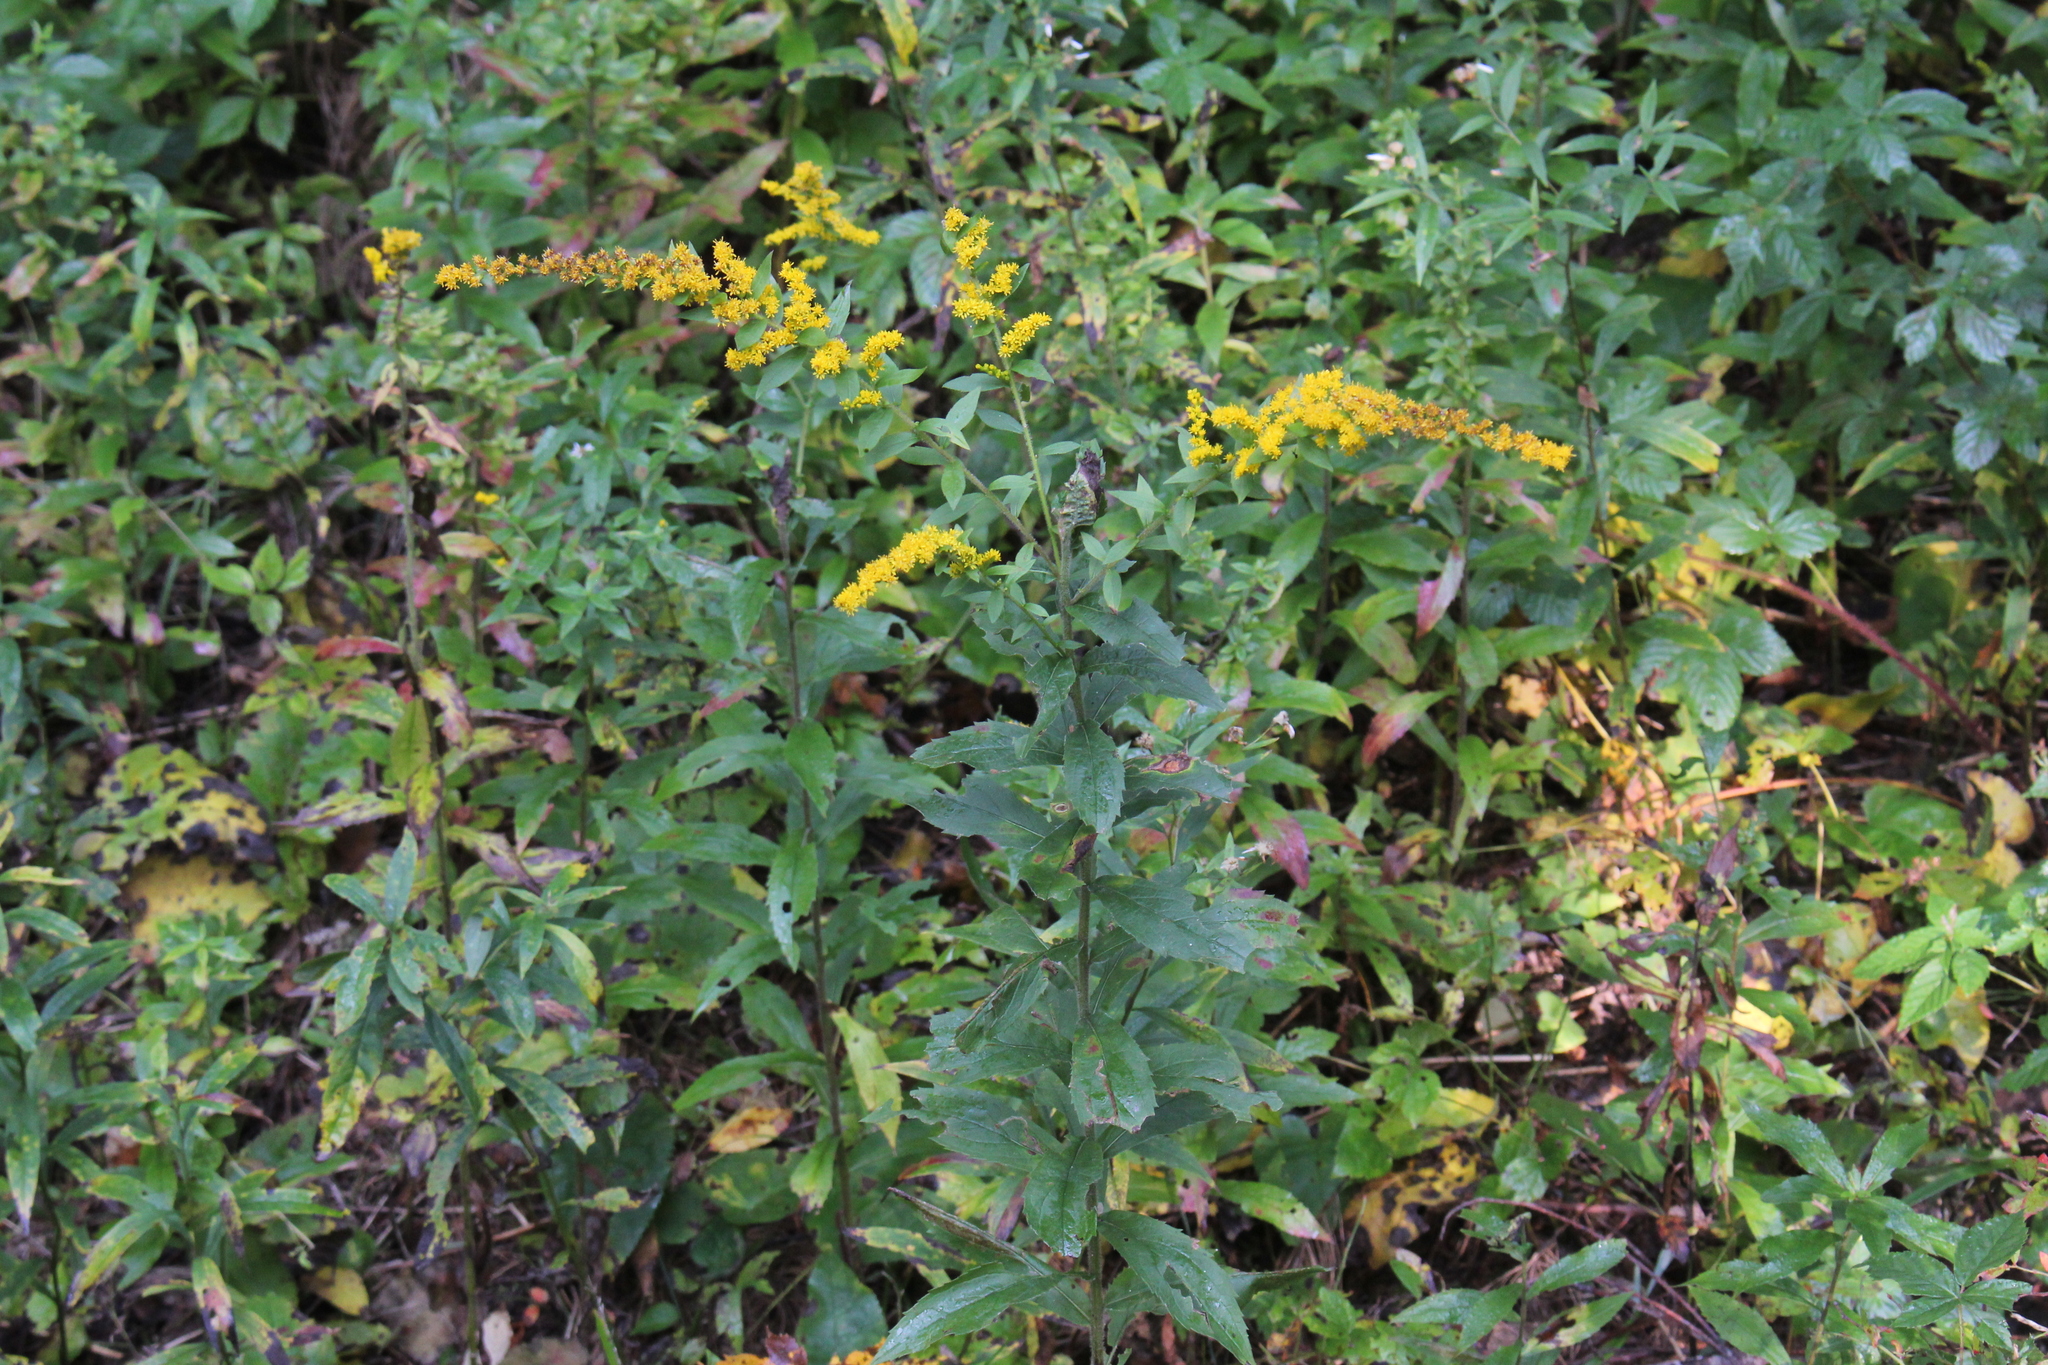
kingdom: Plantae
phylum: Tracheophyta
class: Magnoliopsida
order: Asterales
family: Asteraceae
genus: Solidago
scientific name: Solidago rugosa
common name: Rough-stemmed goldenrod
